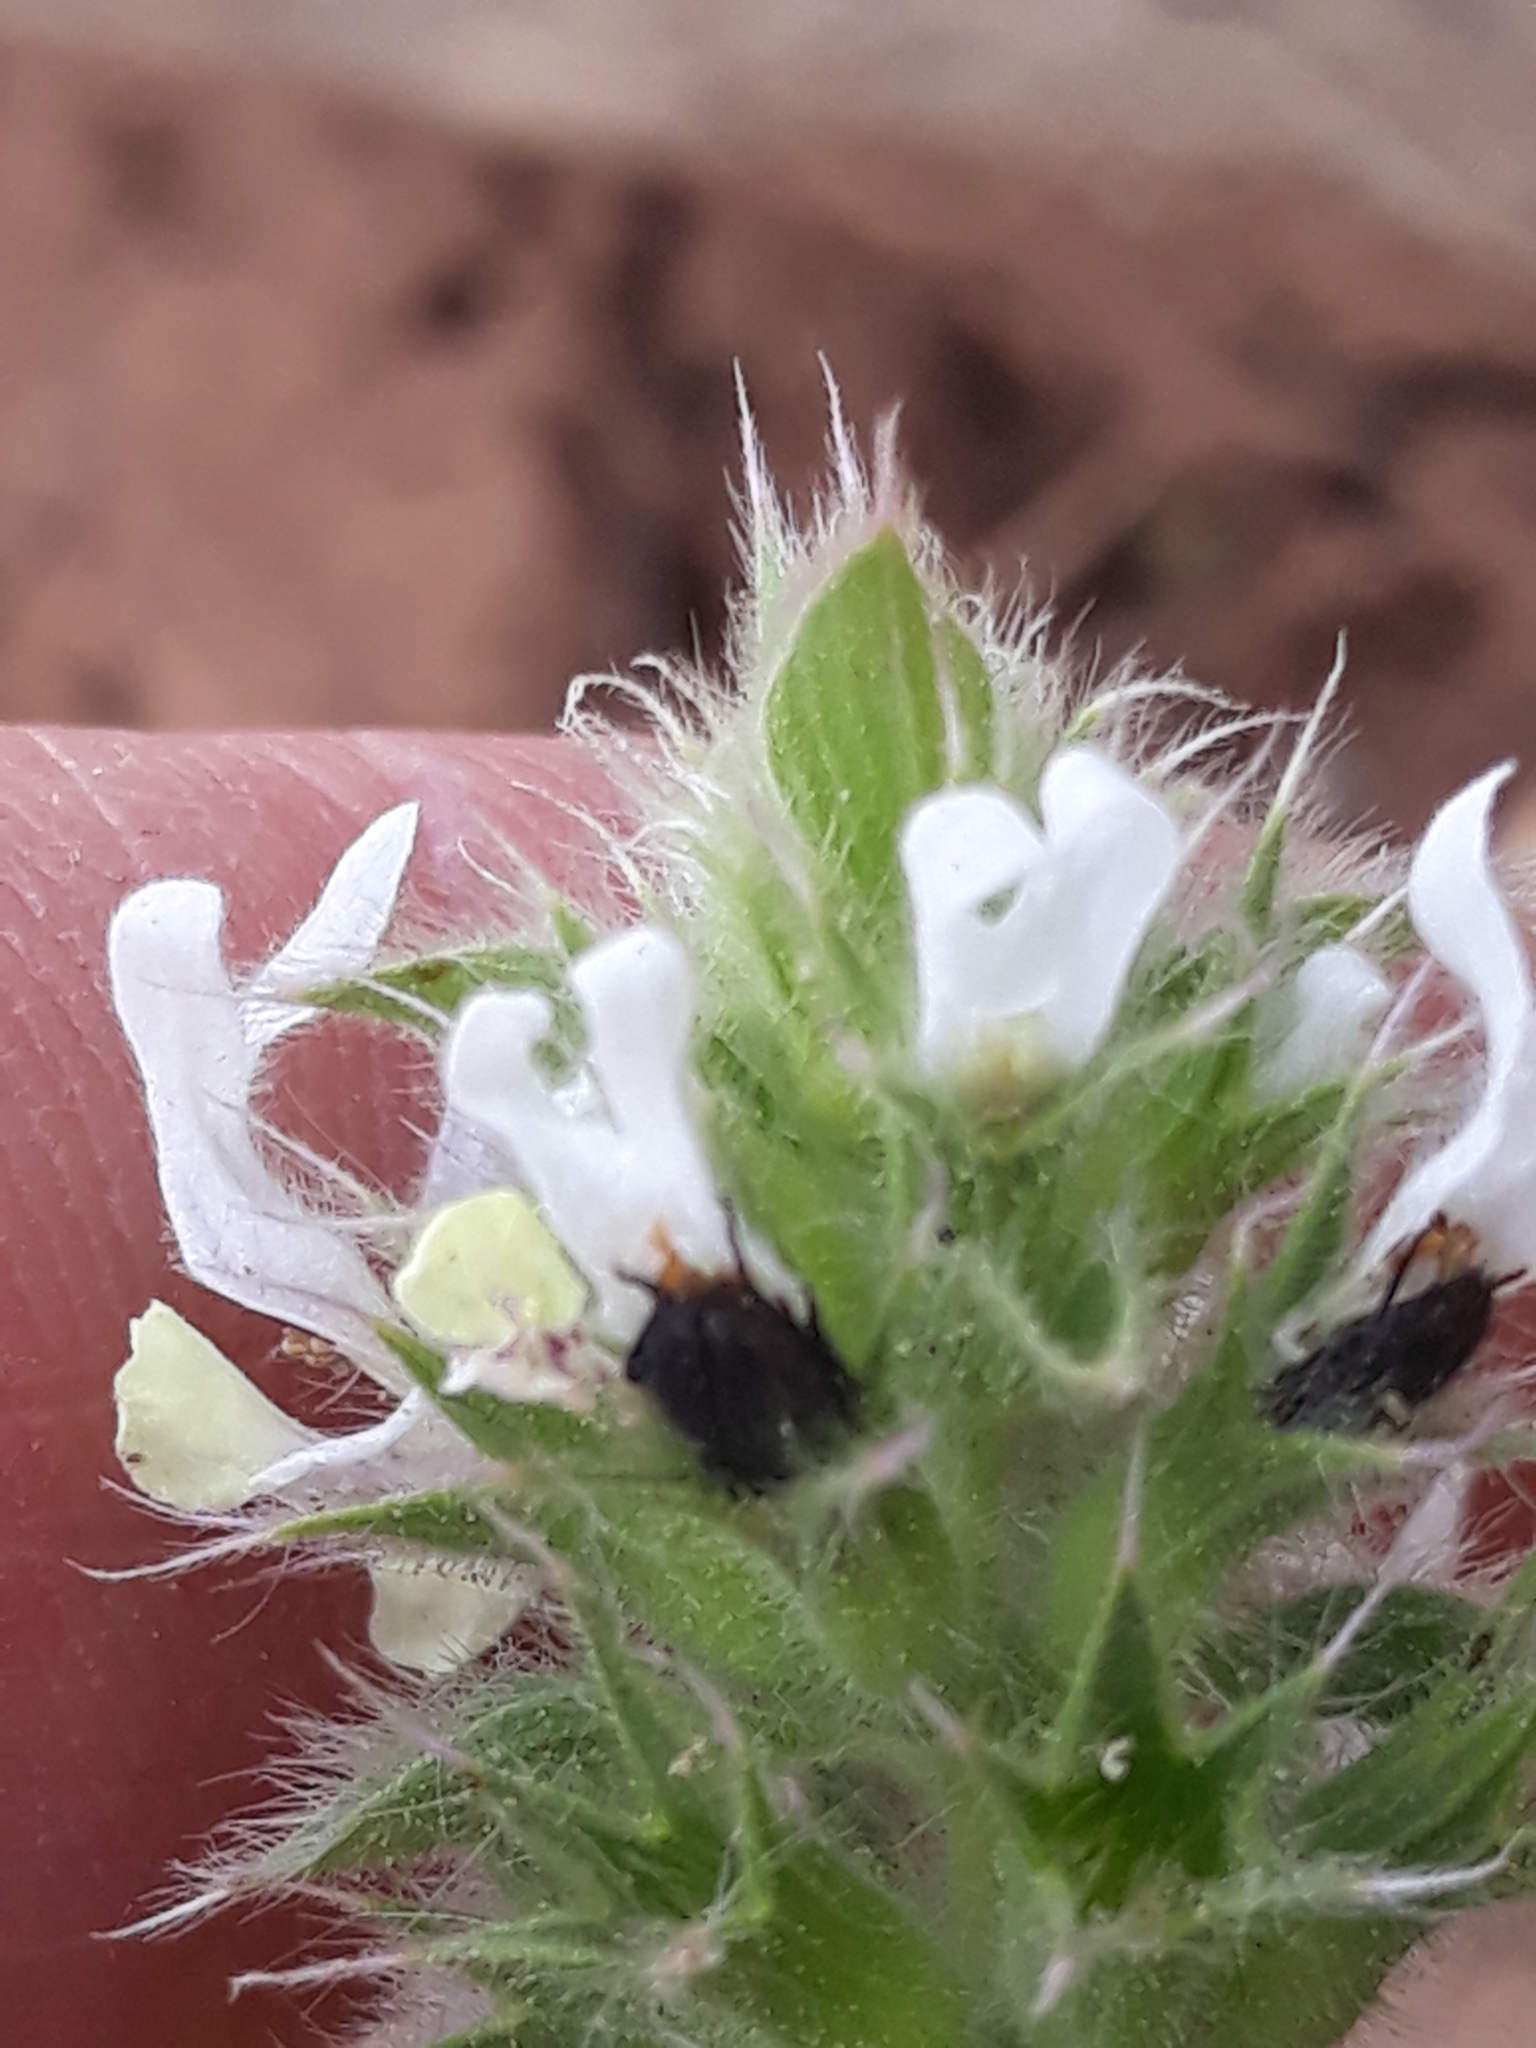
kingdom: Plantae
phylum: Tracheophyta
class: Magnoliopsida
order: Lamiales
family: Lamiaceae
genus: Stachys
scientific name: Stachys ocymastrum
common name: Italian hedgenettle
